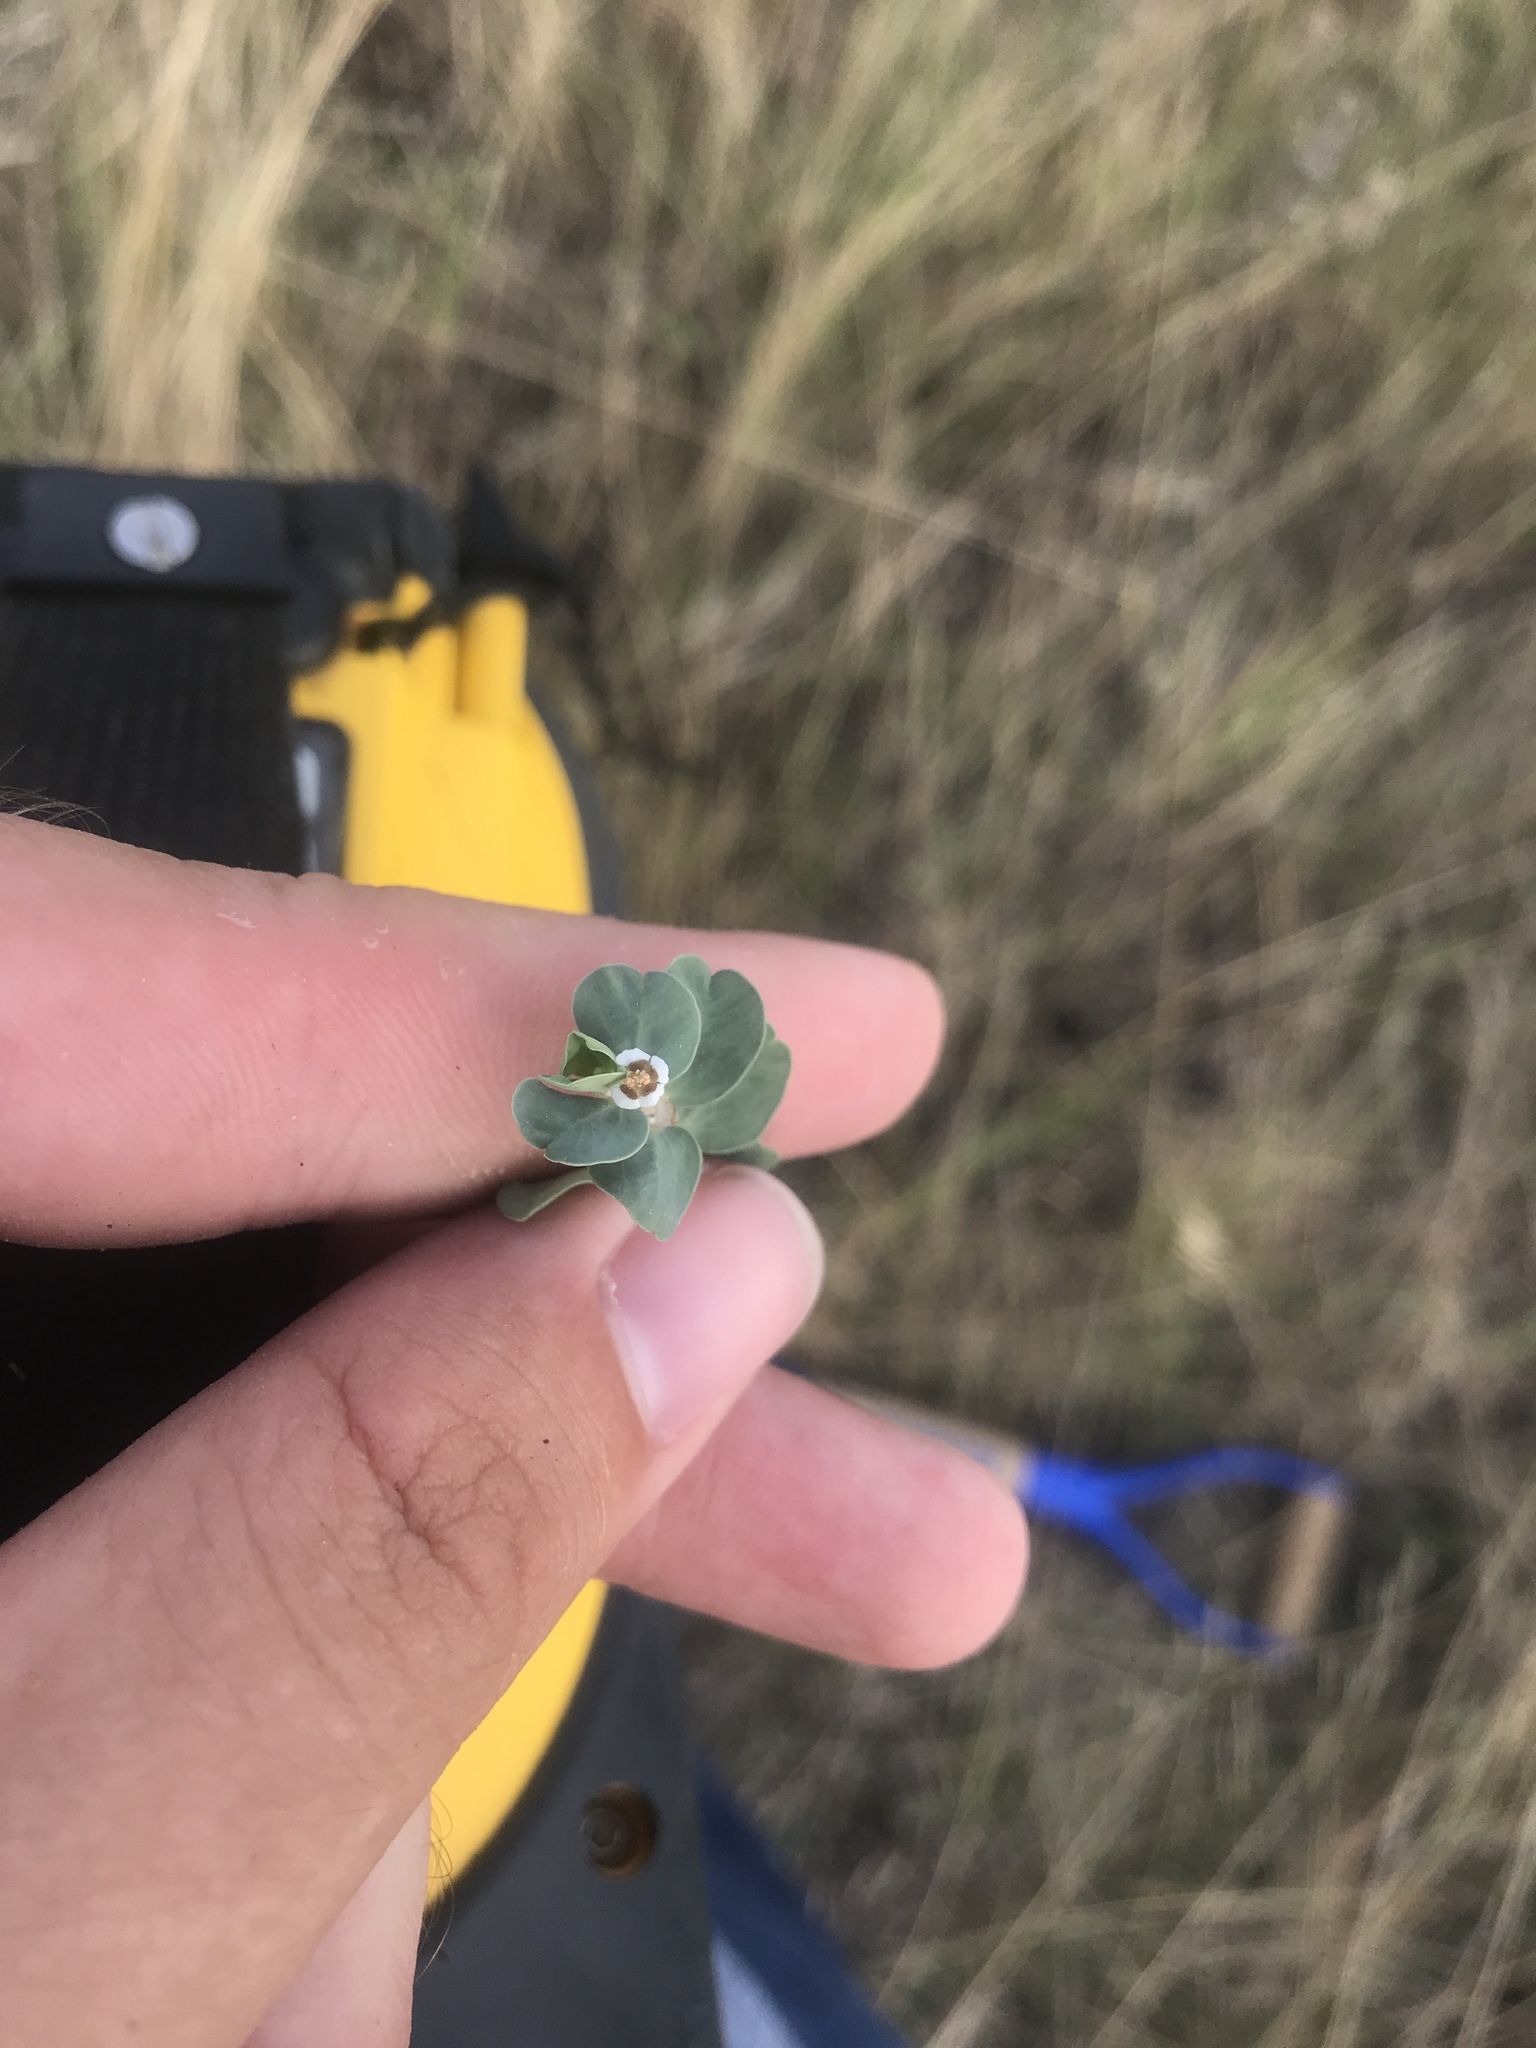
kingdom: Plantae
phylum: Tracheophyta
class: Magnoliopsida
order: Malpighiales
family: Euphorbiaceae
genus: Euphorbia
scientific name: Euphorbia albomarginata
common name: Whitemargin sandmat
